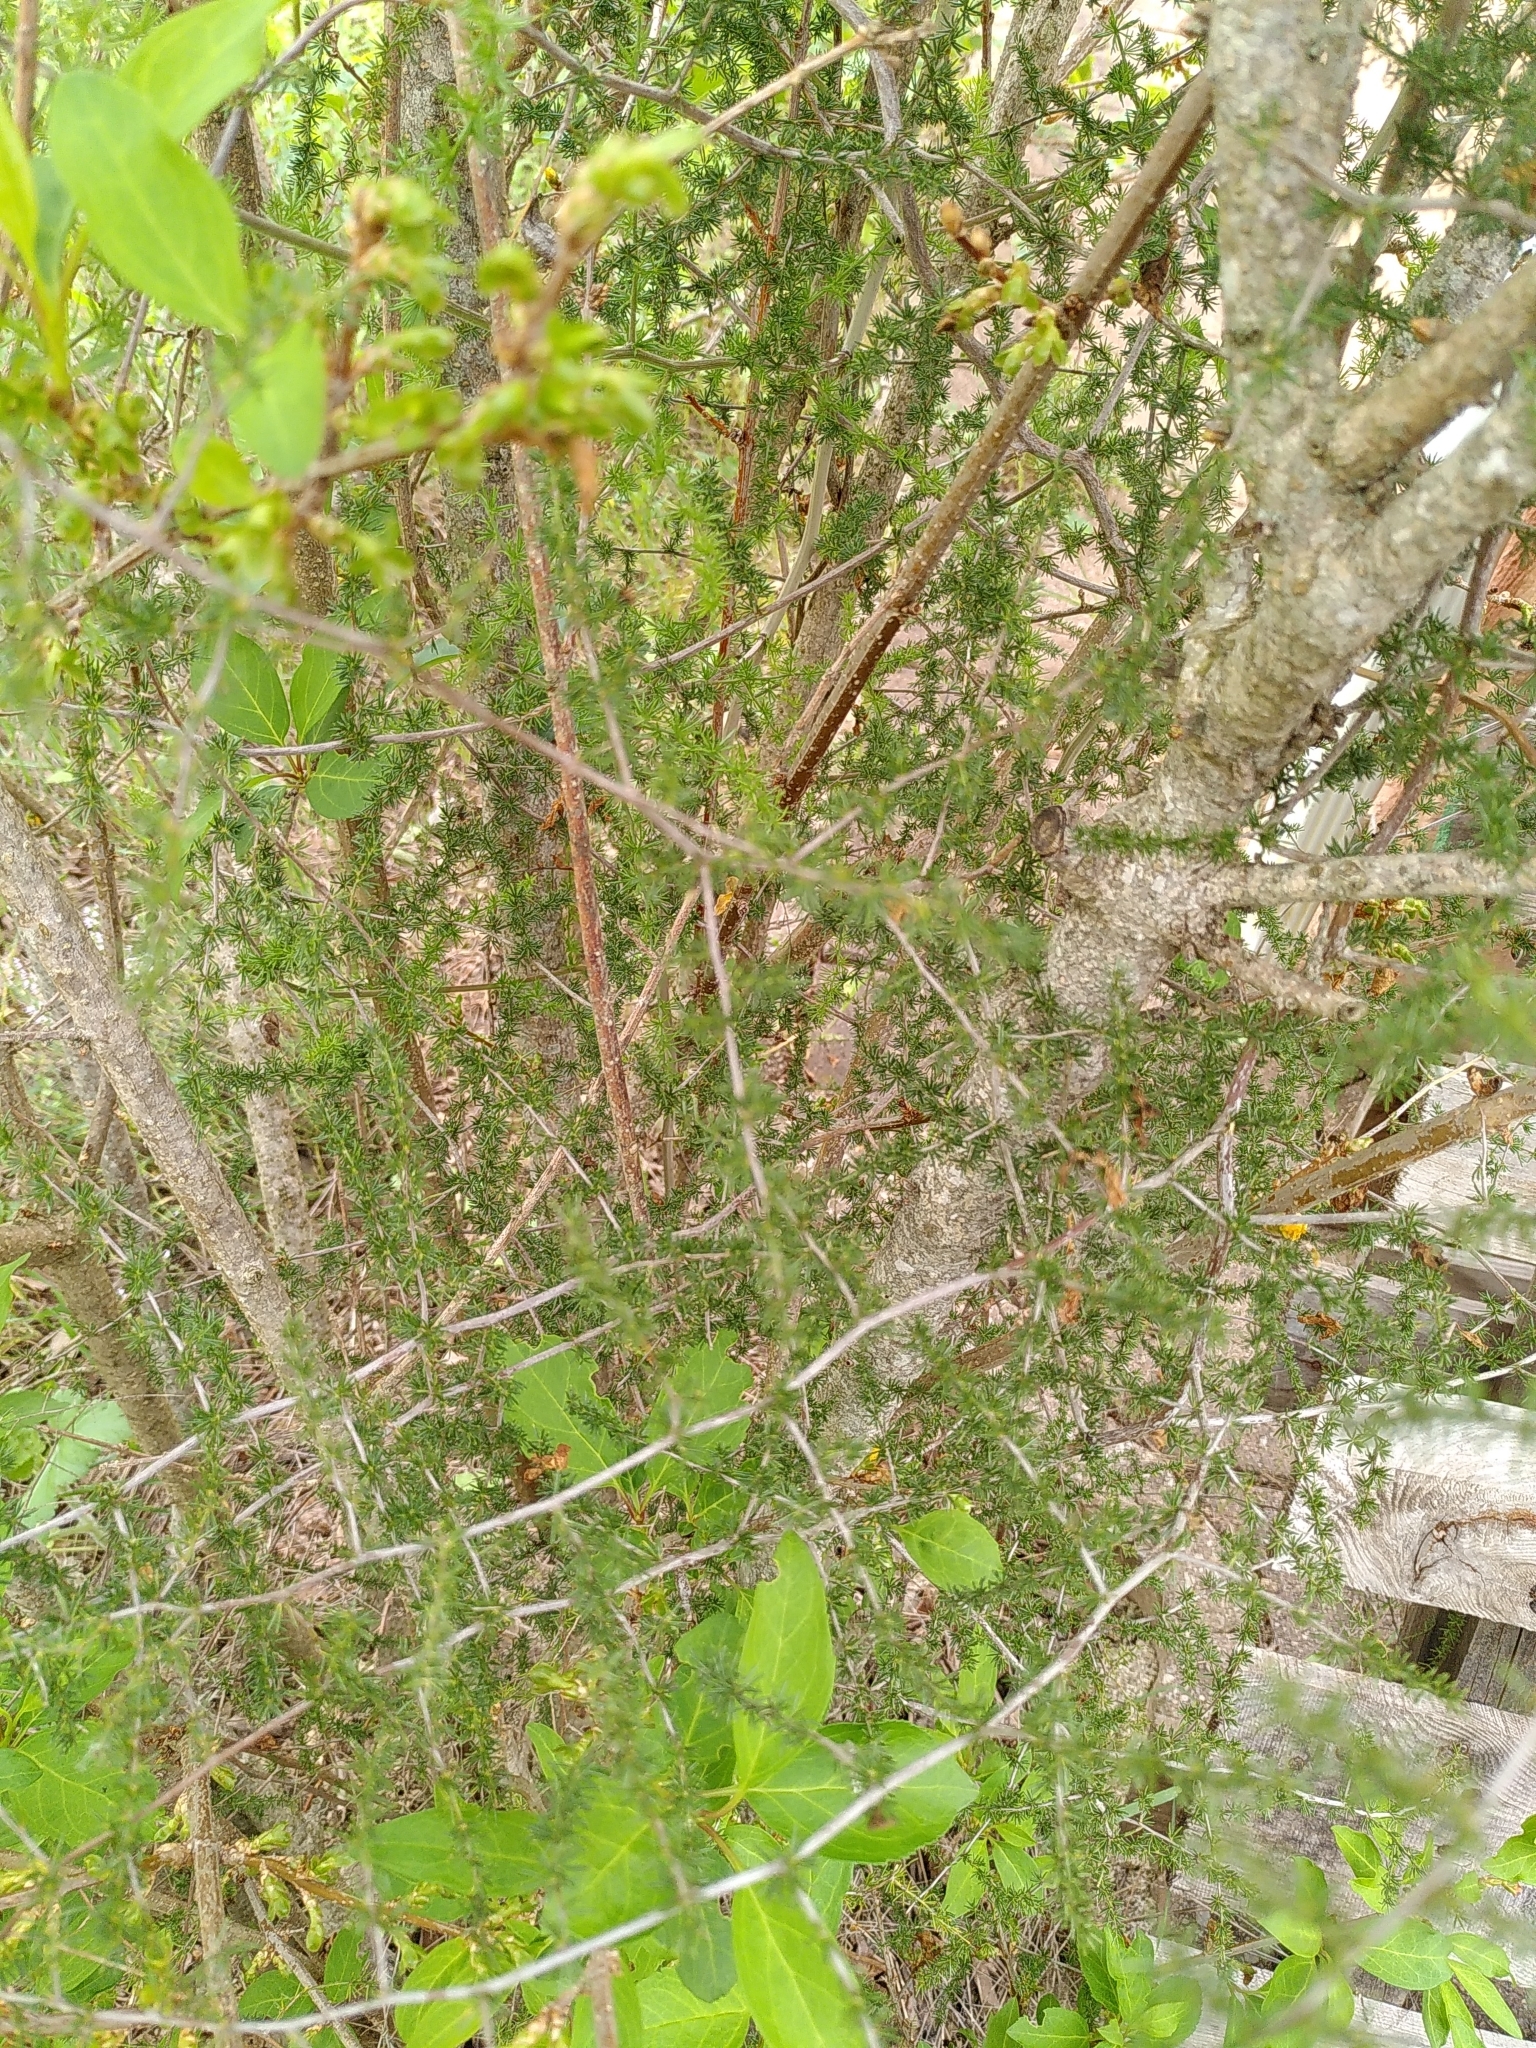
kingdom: Plantae
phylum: Tracheophyta
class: Liliopsida
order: Asparagales
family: Asparagaceae
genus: Asparagus
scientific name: Asparagus acutifolius
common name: Wild asparagus
